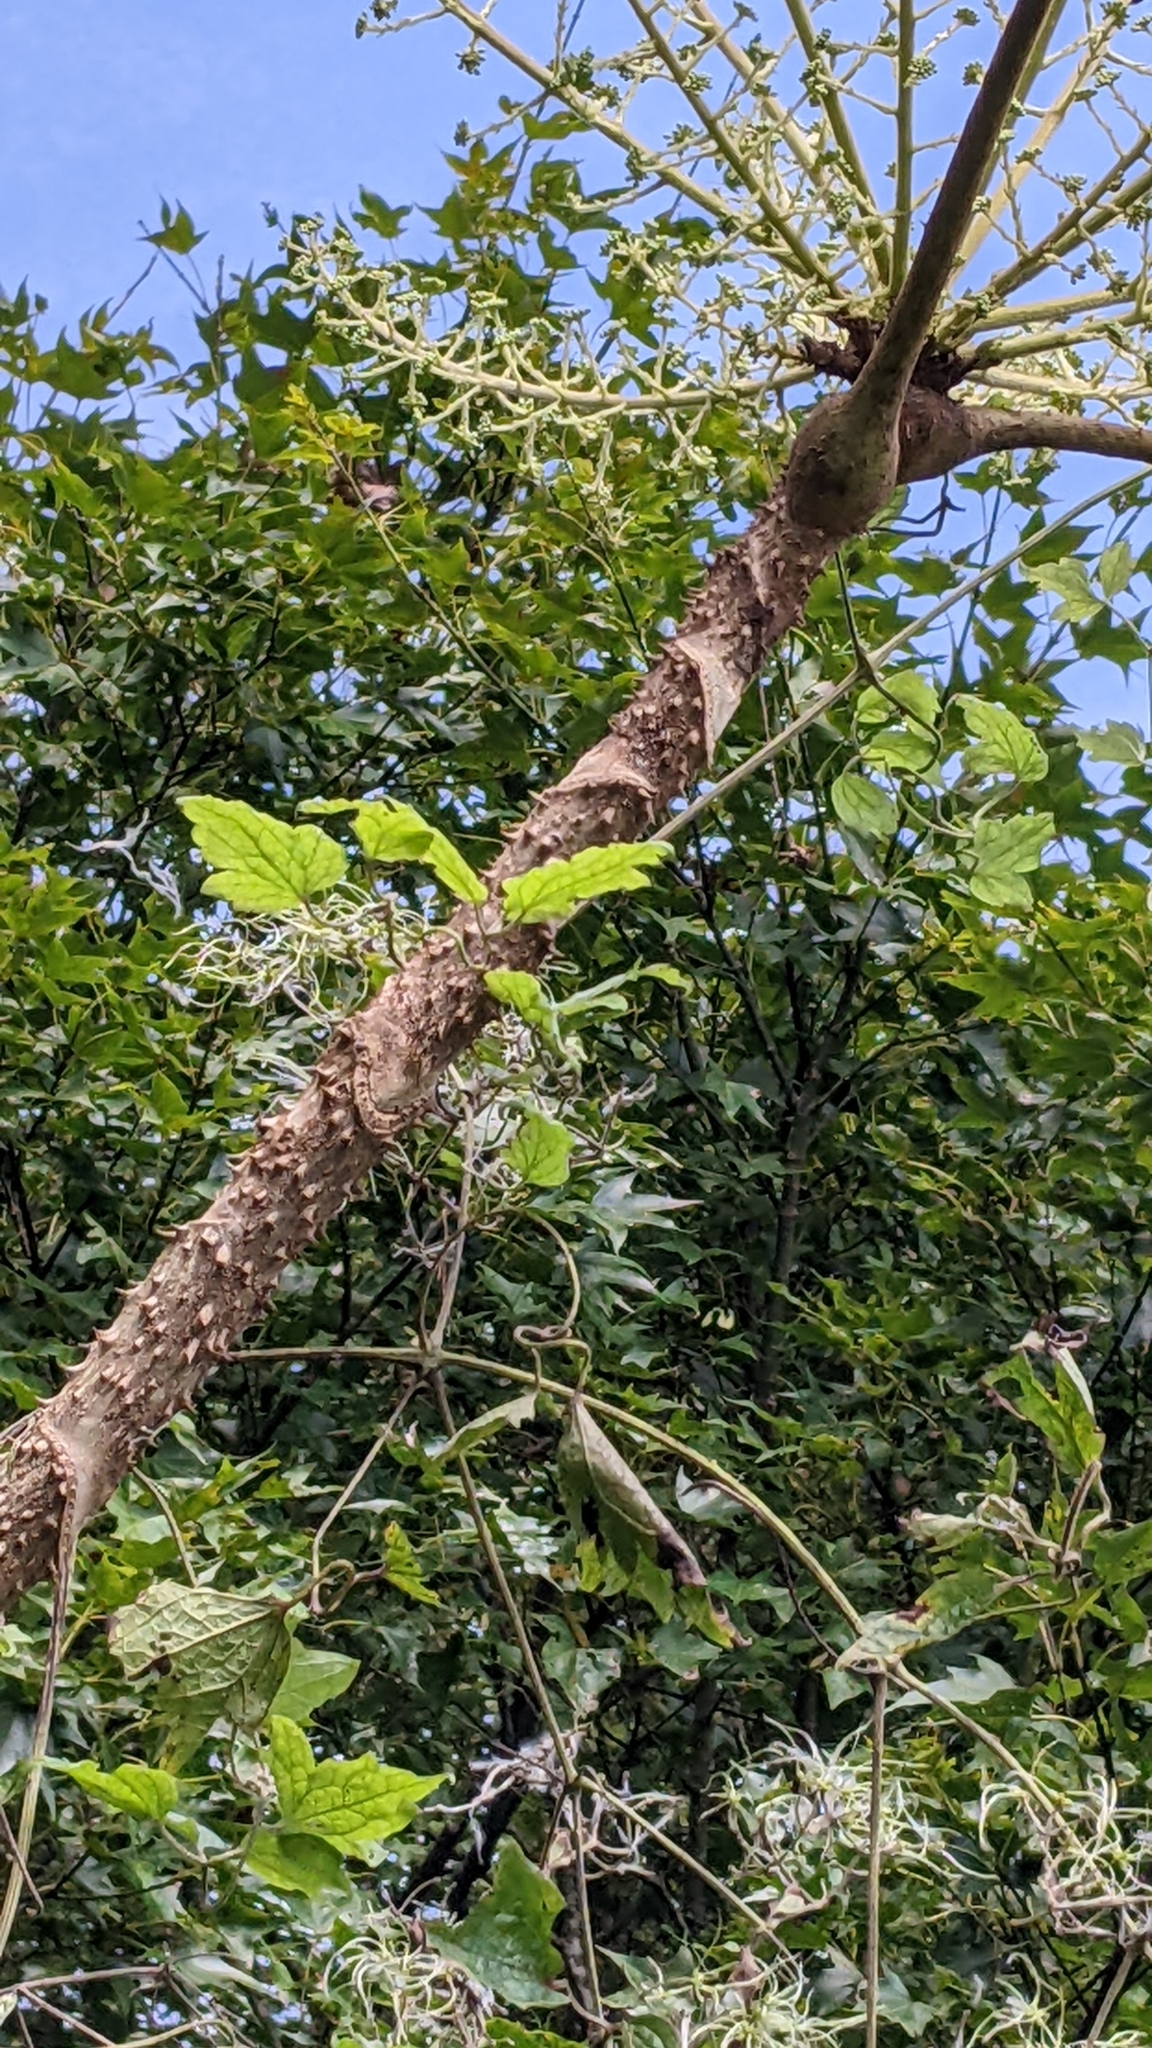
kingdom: Plantae
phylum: Tracheophyta
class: Magnoliopsida
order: Apiales
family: Araliaceae
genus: Aralia
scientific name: Aralia decaisneana
